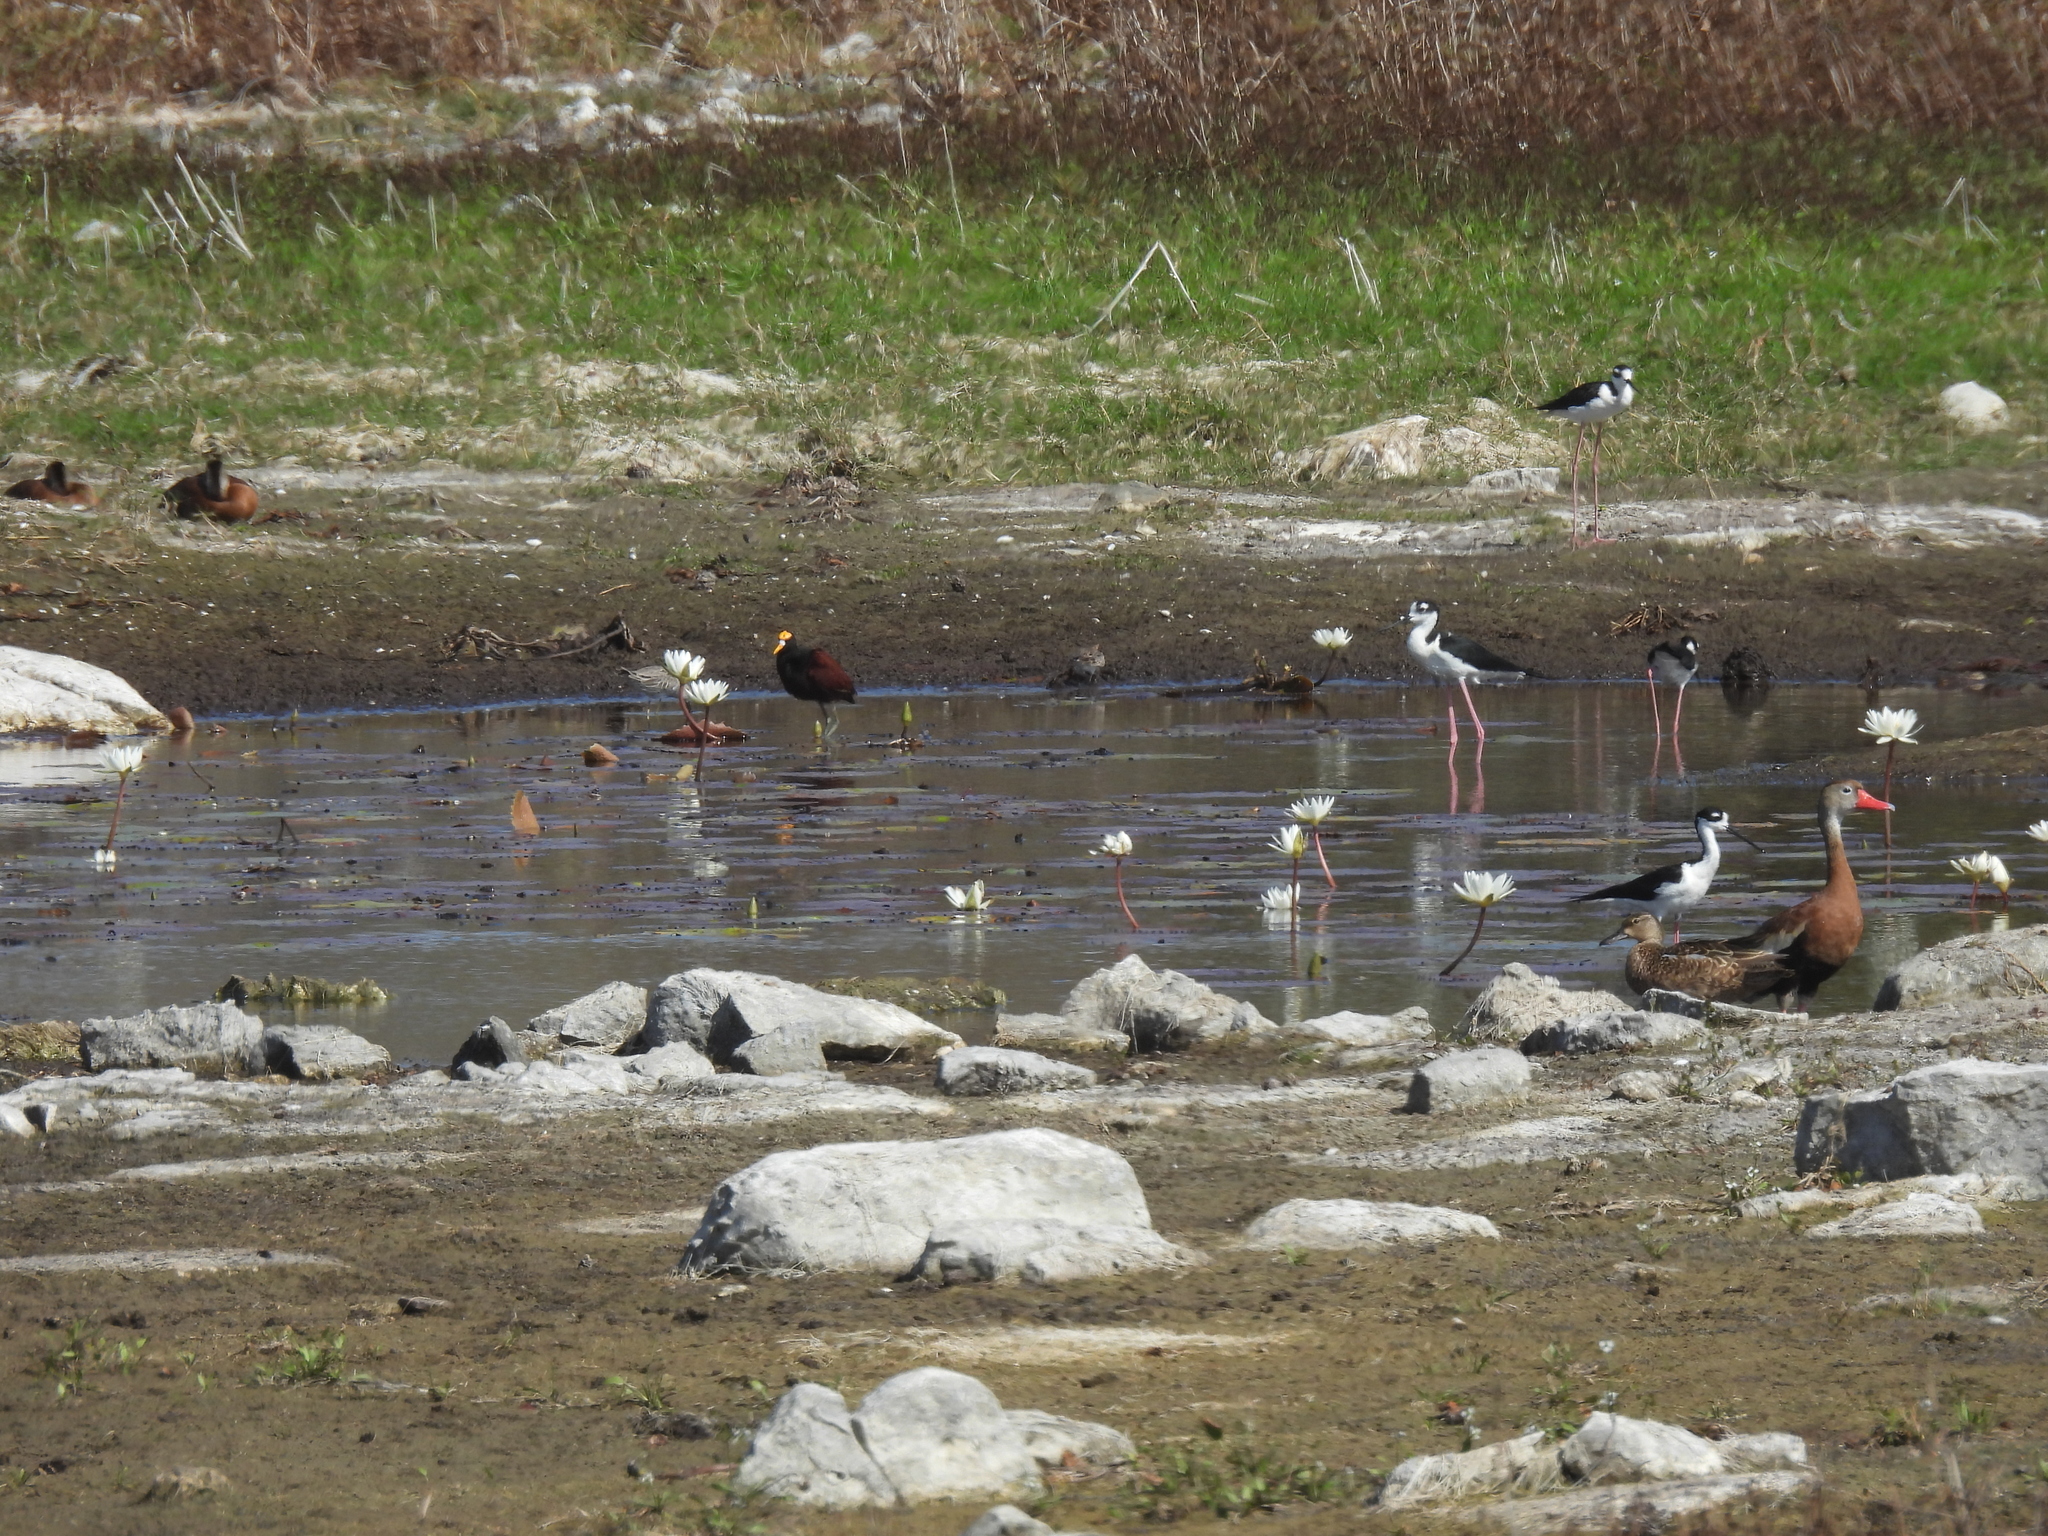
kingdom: Animalia
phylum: Chordata
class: Aves
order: Charadriiformes
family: Recurvirostridae
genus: Himantopus
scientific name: Himantopus mexicanus
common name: Black-necked stilt
